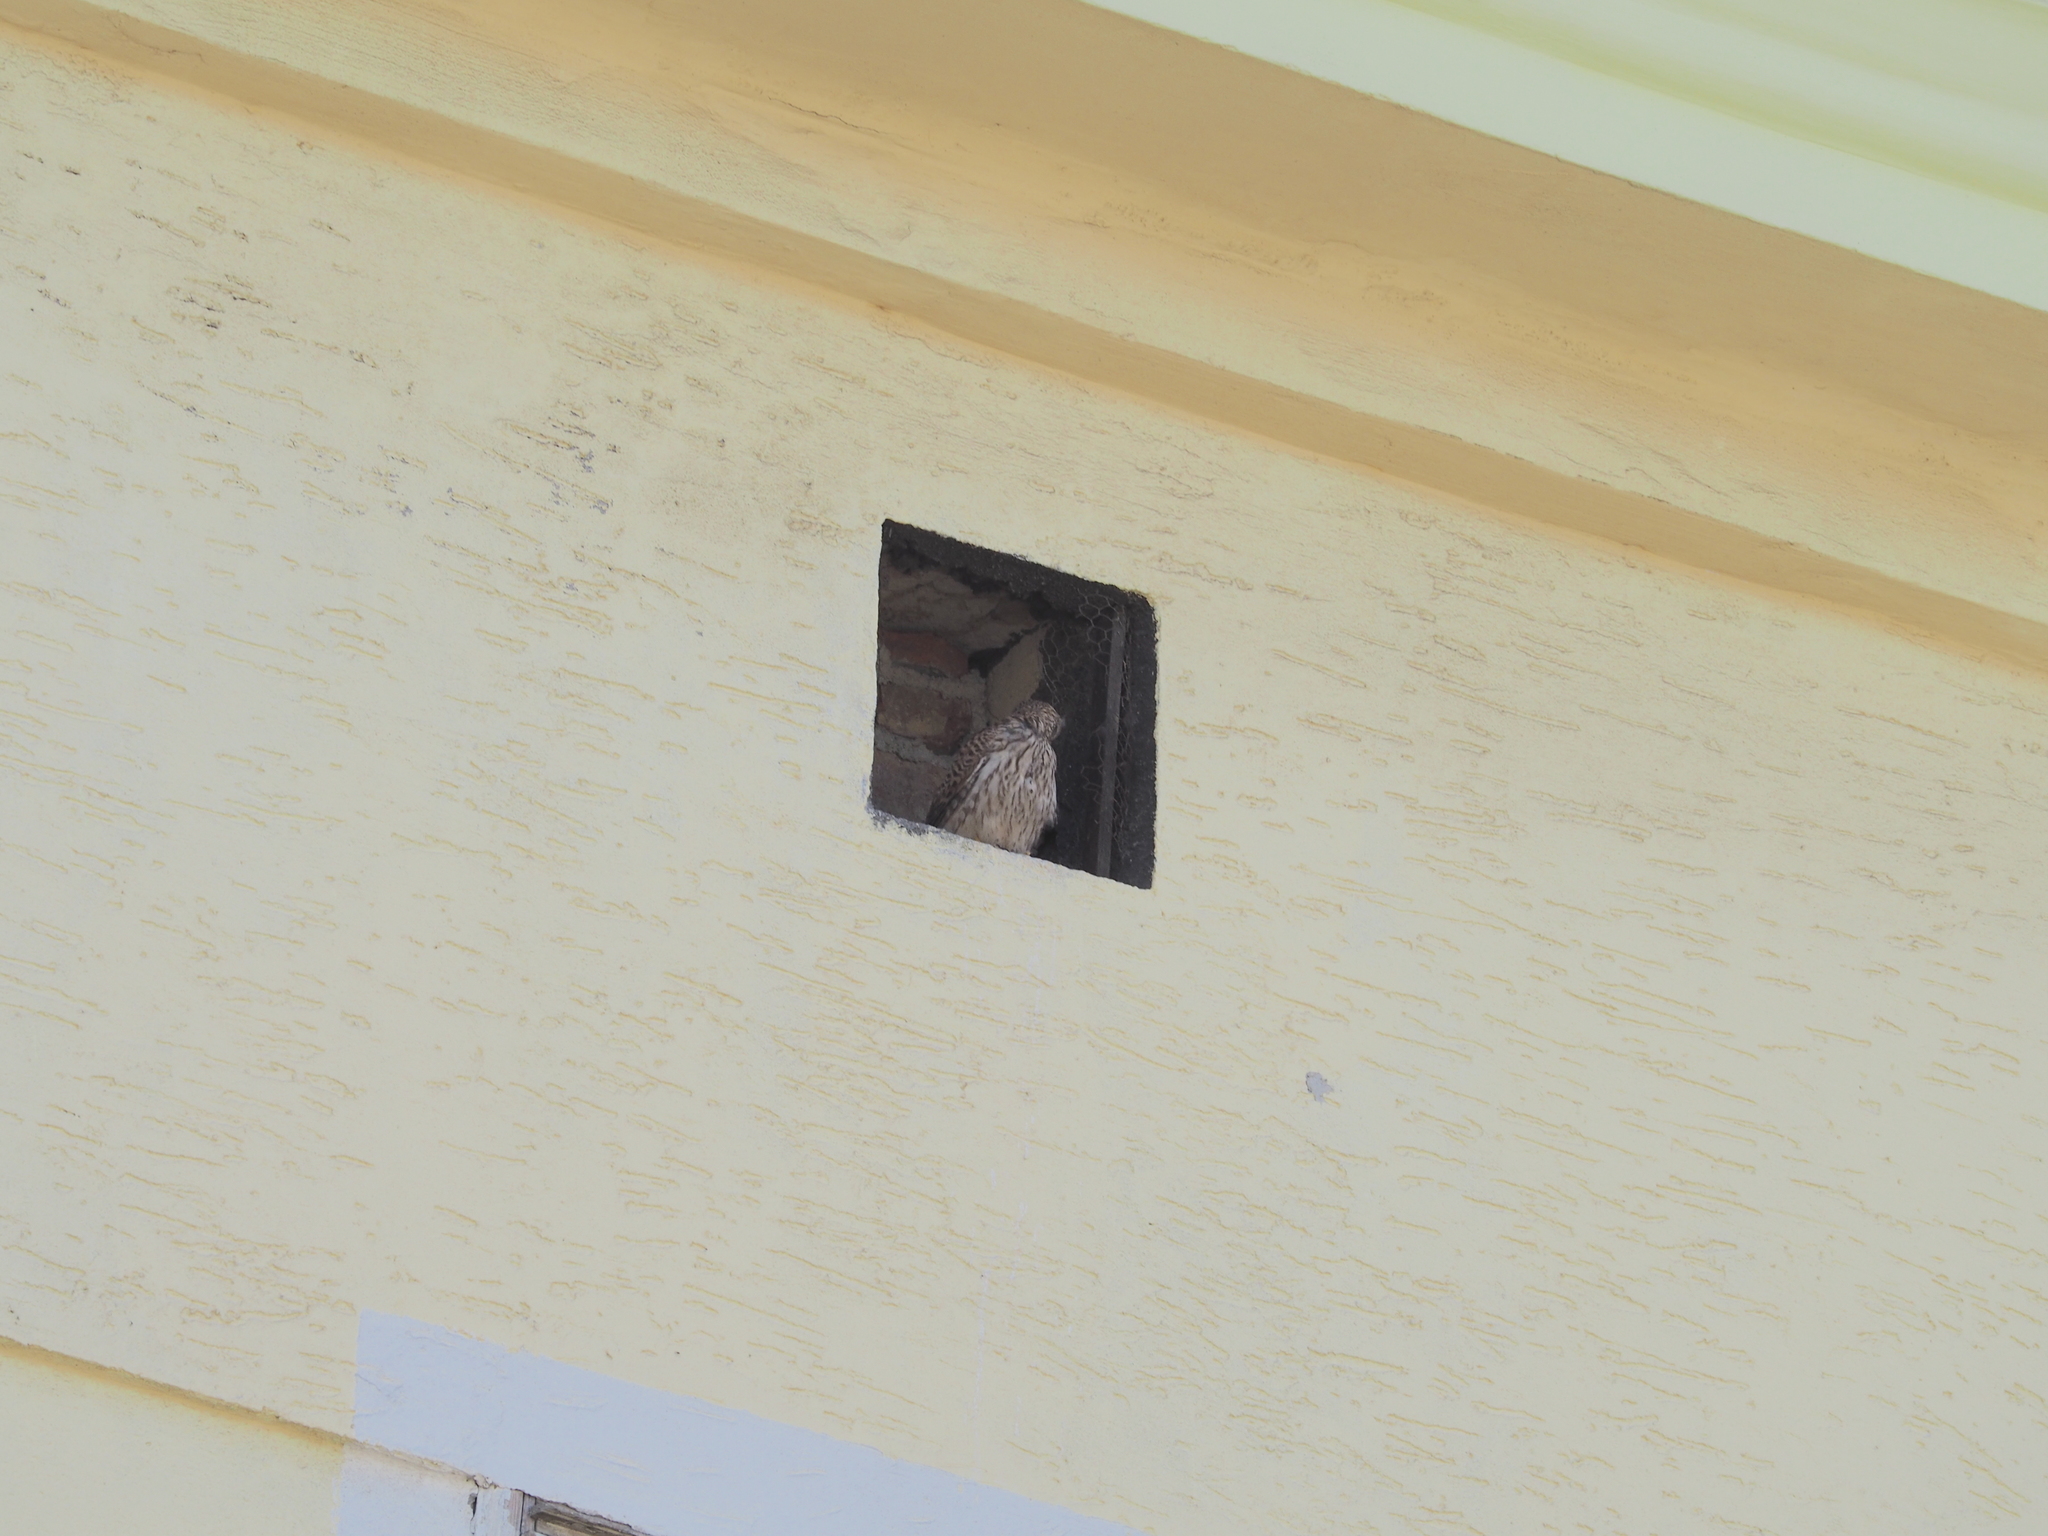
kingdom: Animalia
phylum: Chordata
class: Aves
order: Falconiformes
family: Falconidae
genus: Falco
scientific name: Falco tinnunculus
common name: Common kestrel
